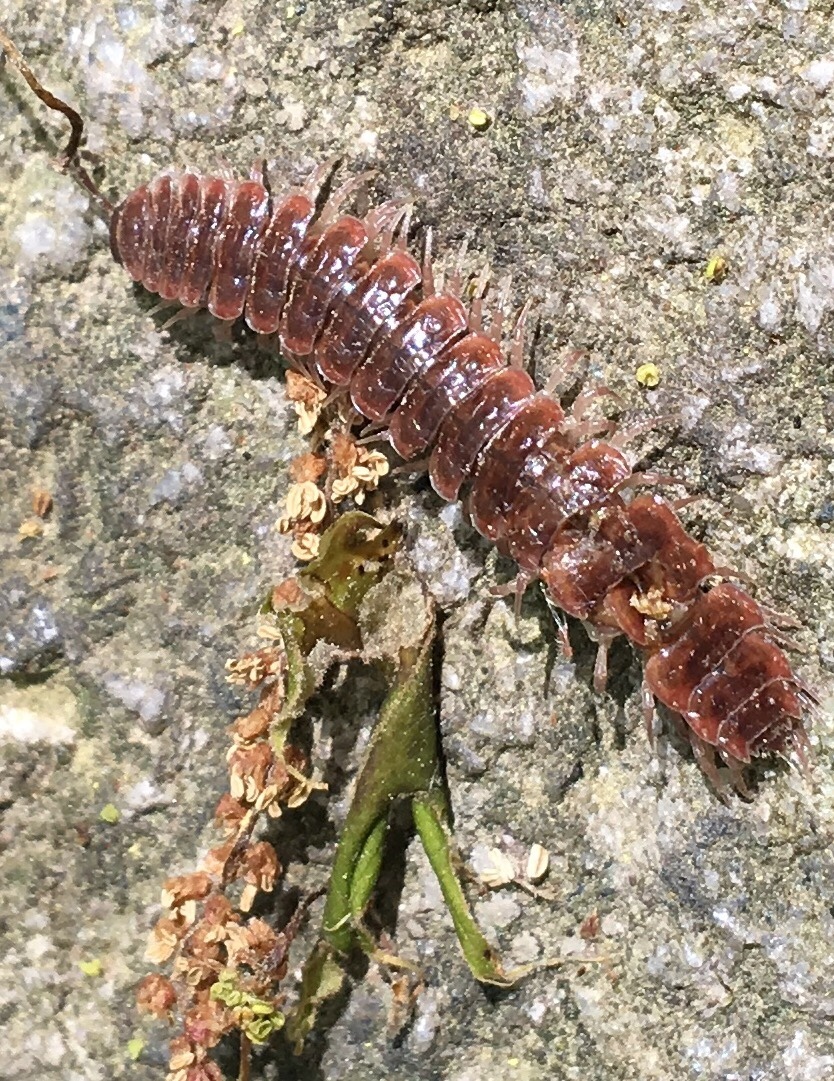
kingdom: Animalia
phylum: Arthropoda
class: Diplopoda
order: Polydesmida
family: Polydesmidae
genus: Pseudopolydesmus
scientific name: Pseudopolydesmus serratus
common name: Common pink flat-back millipede
